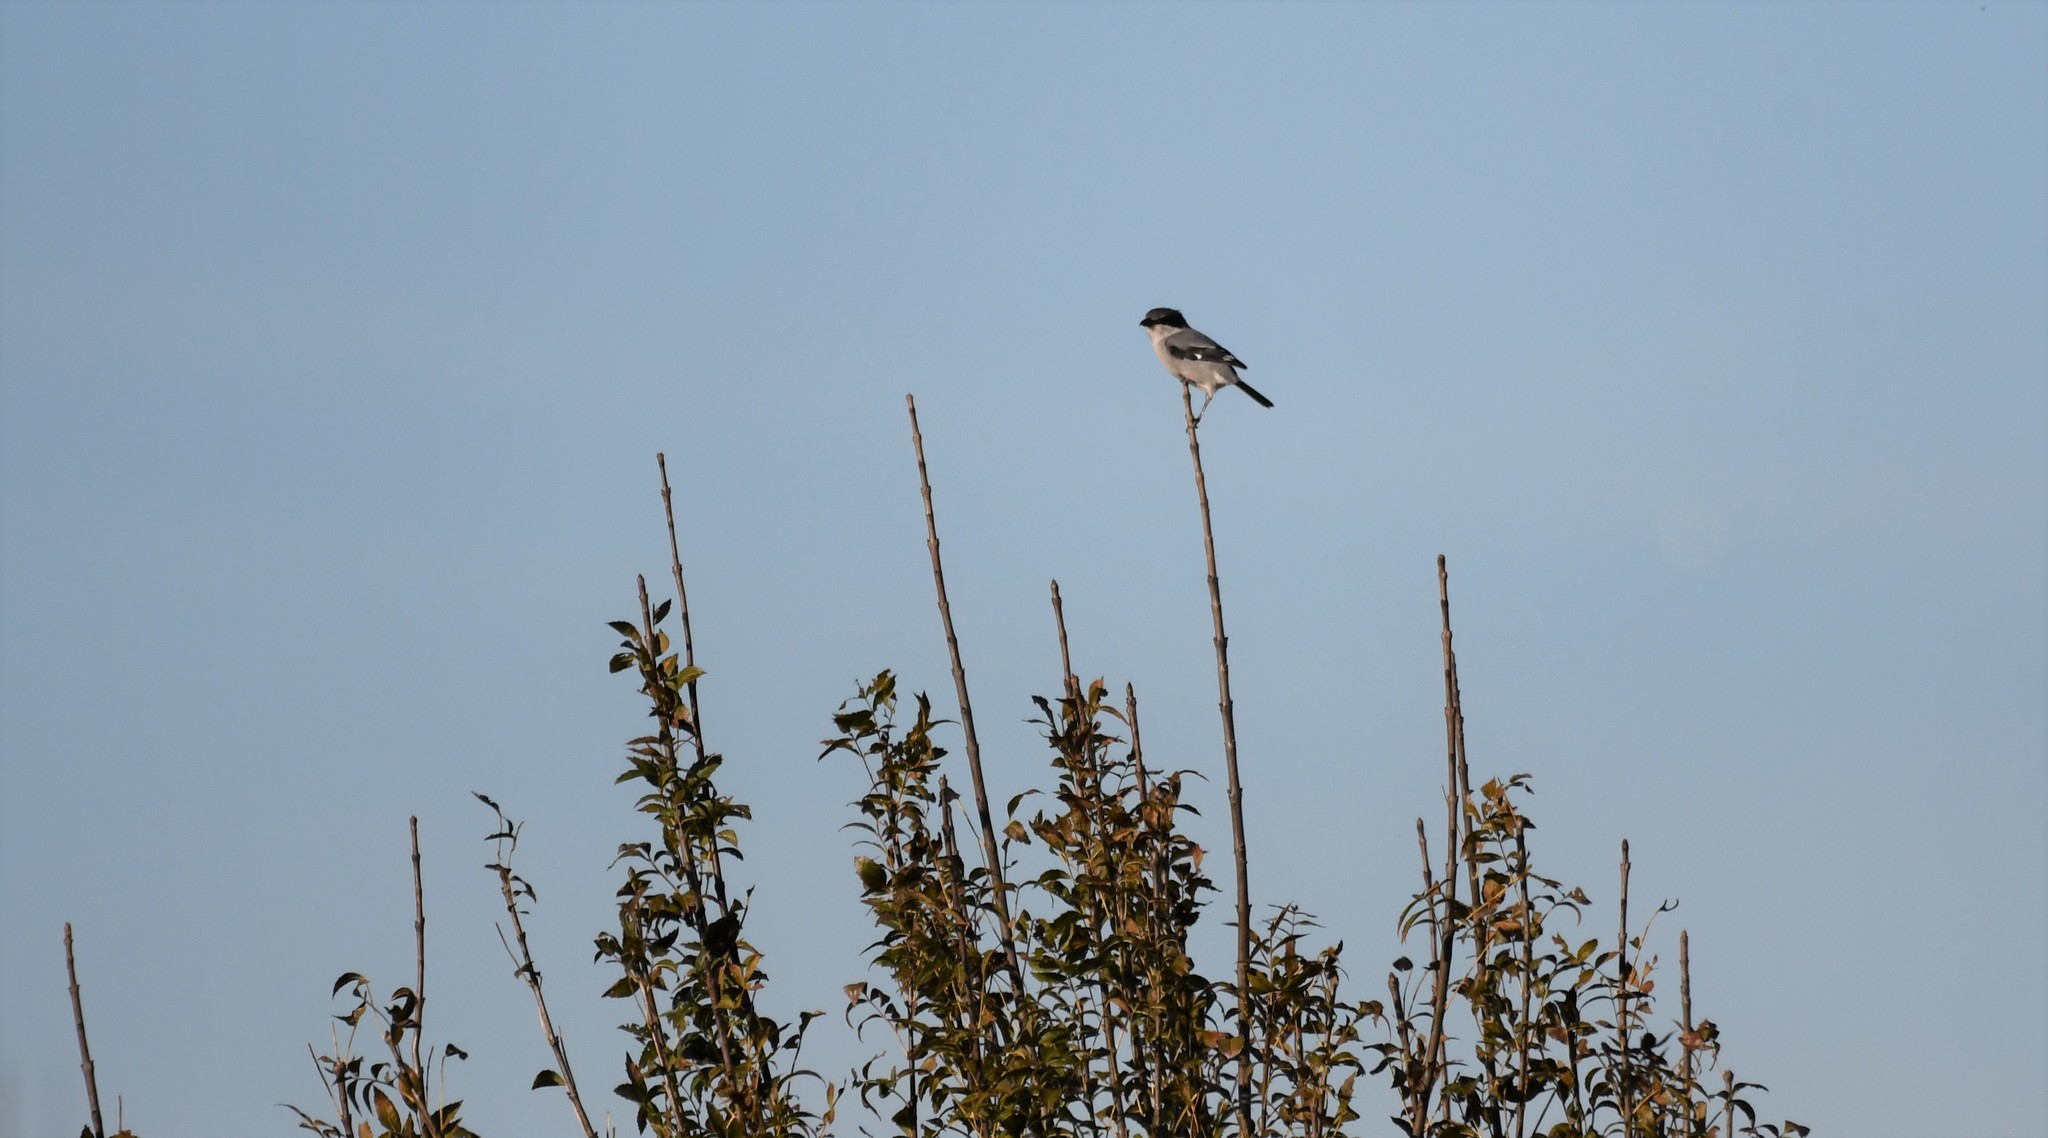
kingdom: Animalia
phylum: Chordata
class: Aves
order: Passeriformes
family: Laniidae
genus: Lanius
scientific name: Lanius meridionalis
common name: Iberian grey shrike
